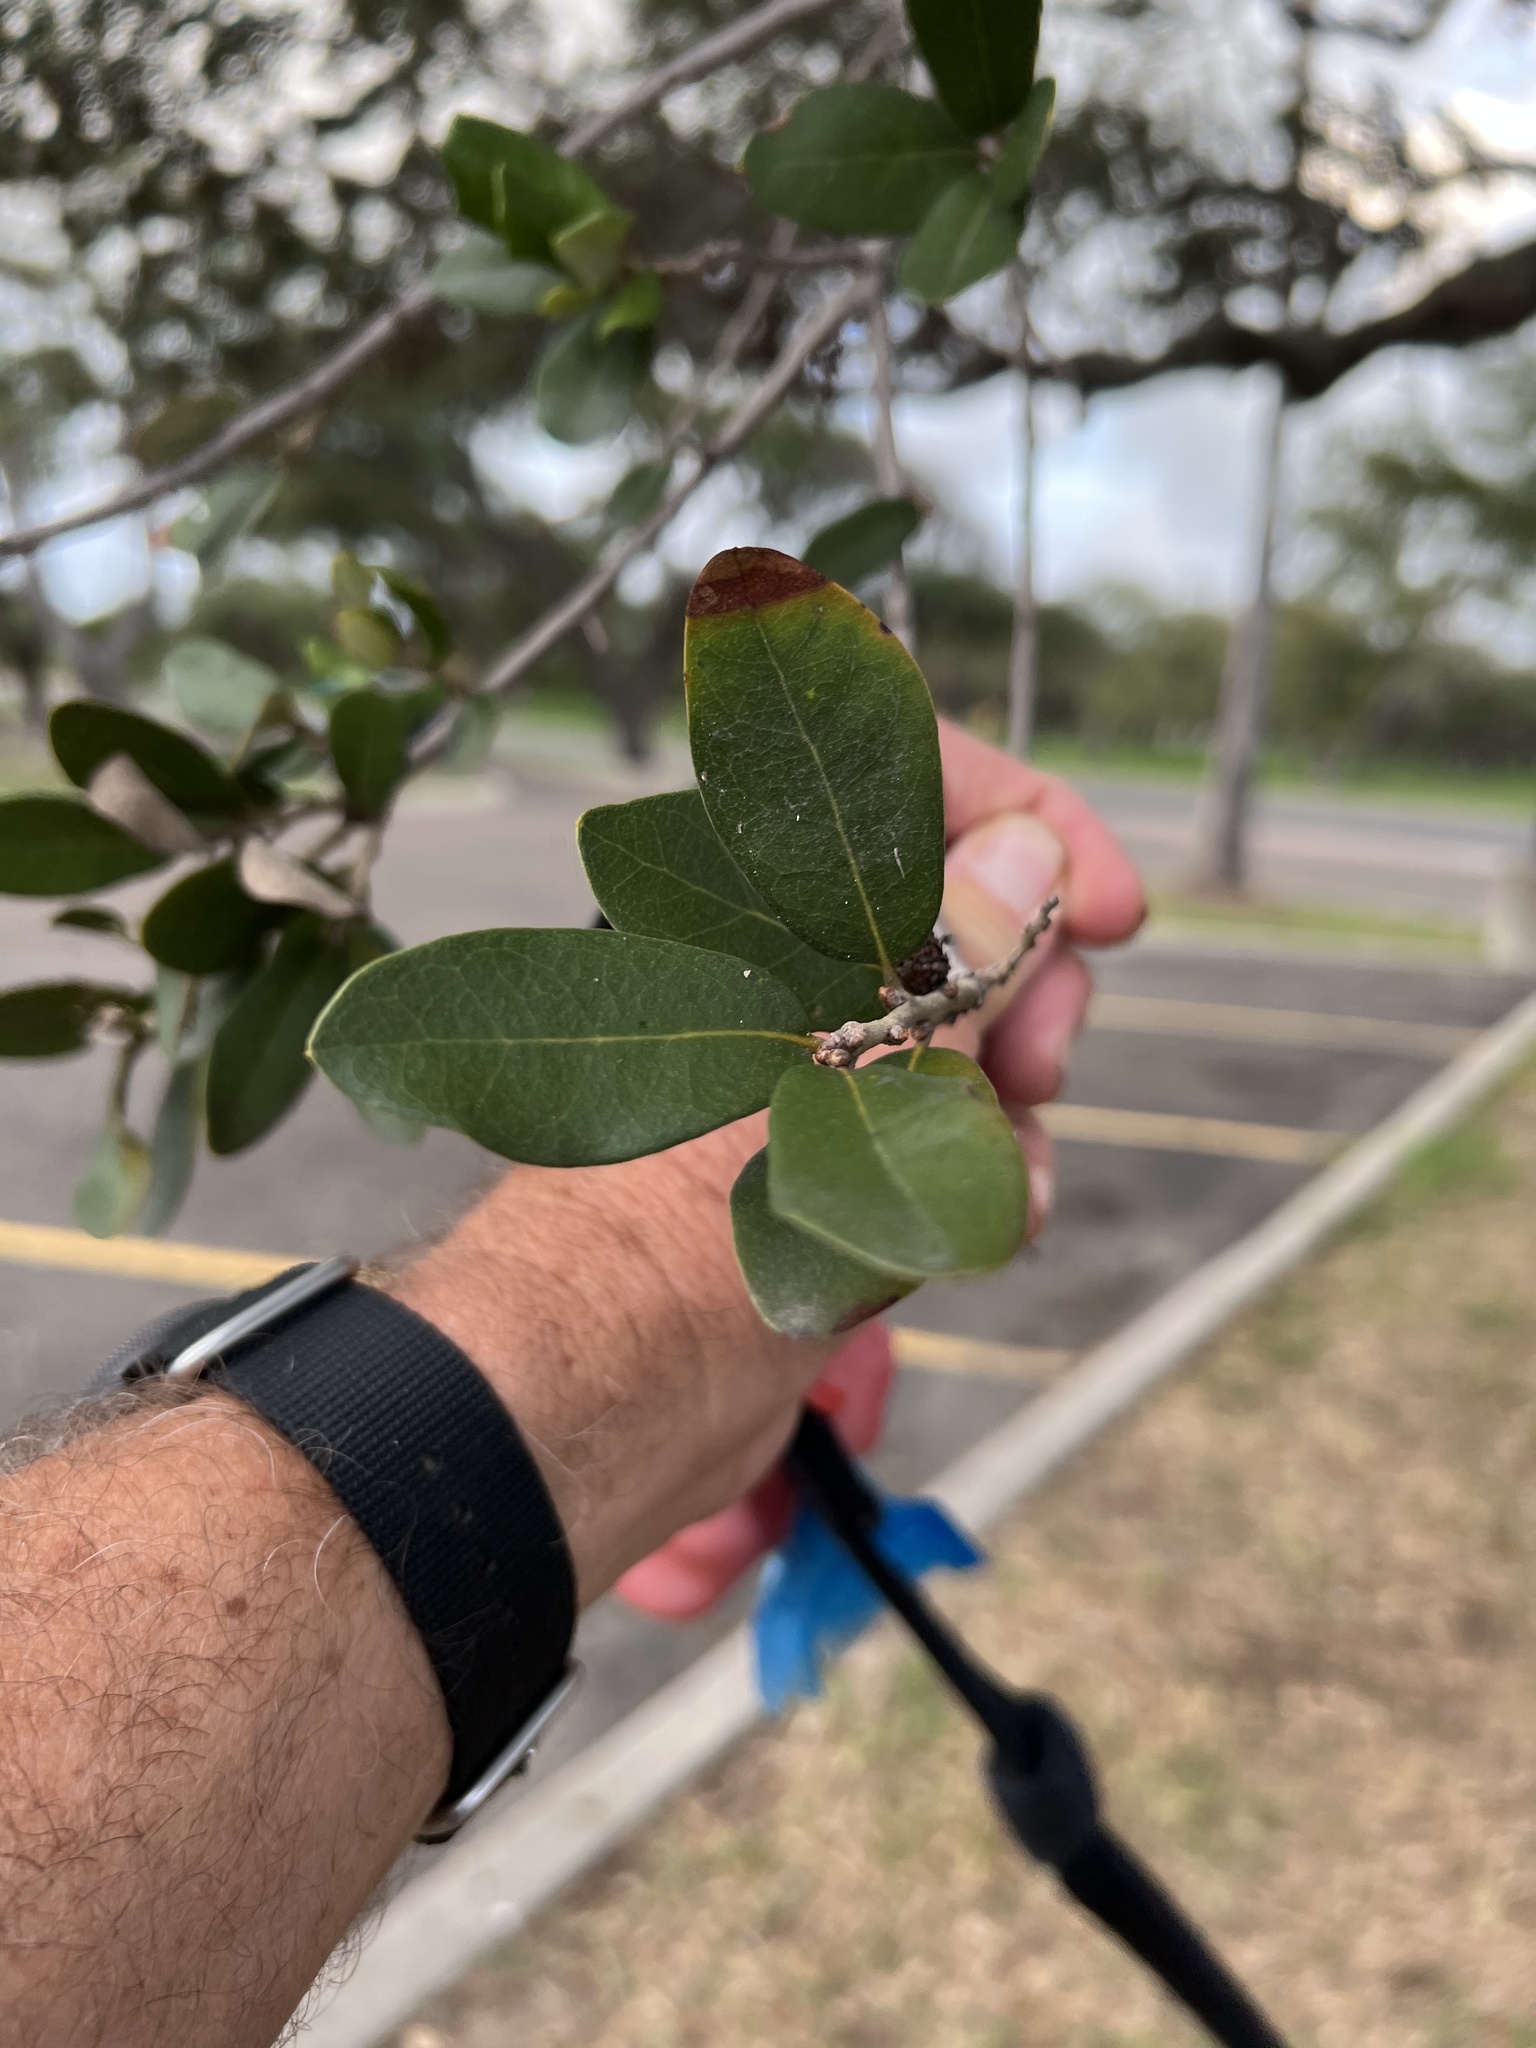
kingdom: Plantae
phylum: Tracheophyta
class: Magnoliopsida
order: Fagales
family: Fagaceae
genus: Quercus
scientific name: Quercus virginiana
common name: Southern live oak
